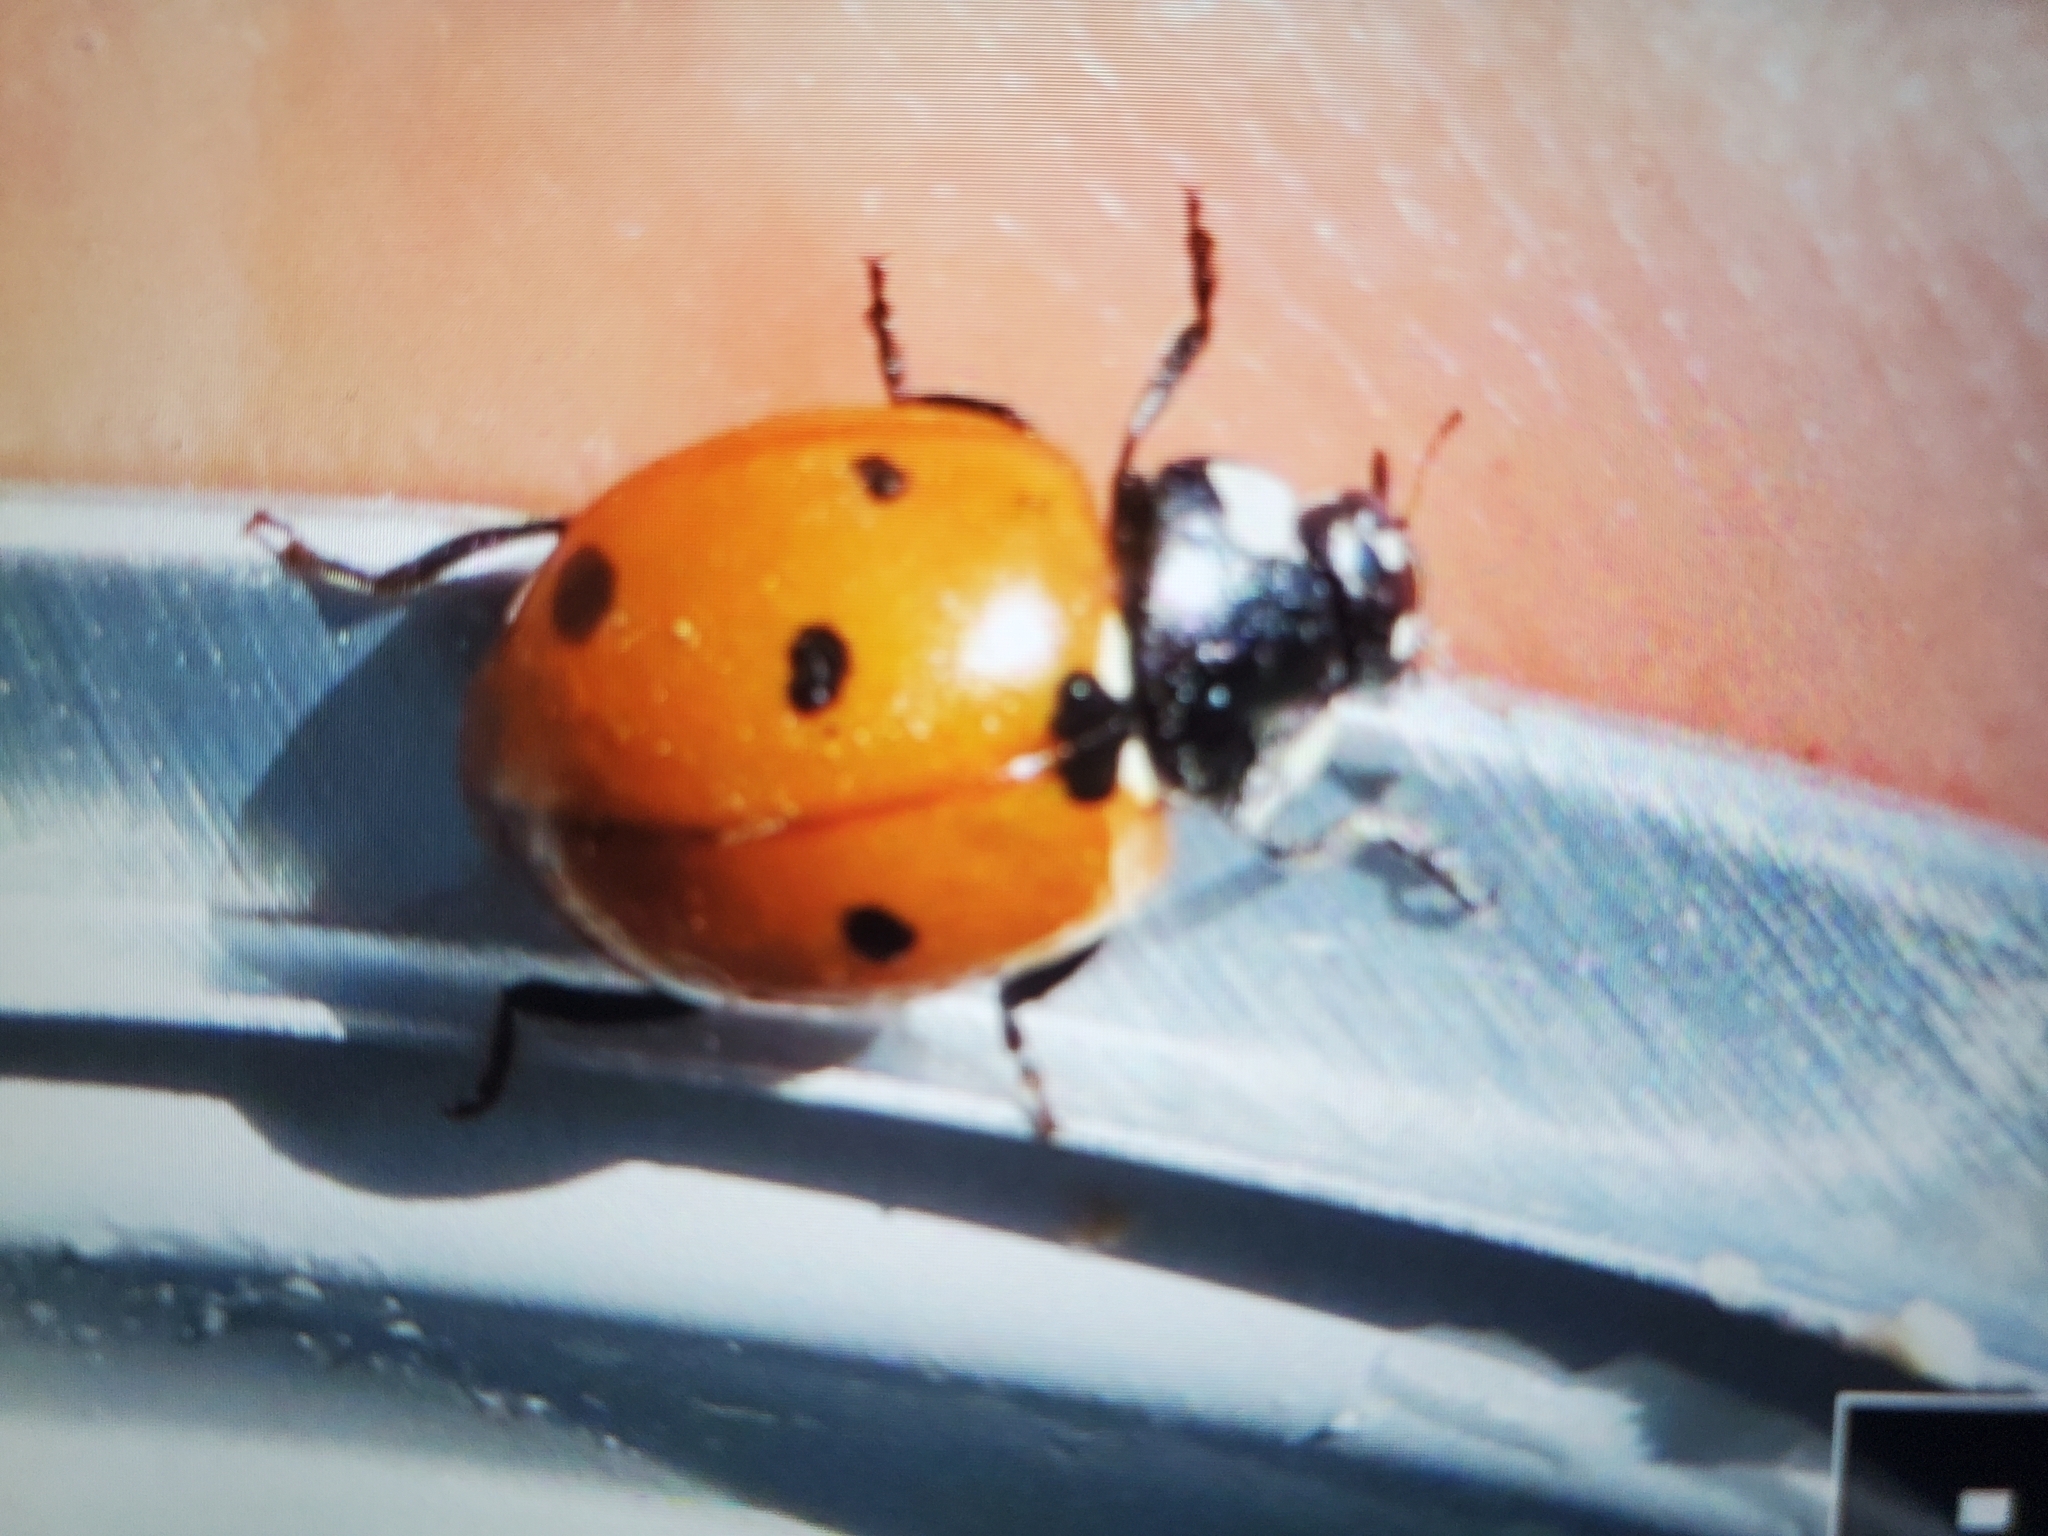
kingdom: Animalia
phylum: Arthropoda
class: Insecta
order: Coleoptera
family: Coccinellidae
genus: Coccinella
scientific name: Coccinella septempunctata
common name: Sevenspotted lady beetle
